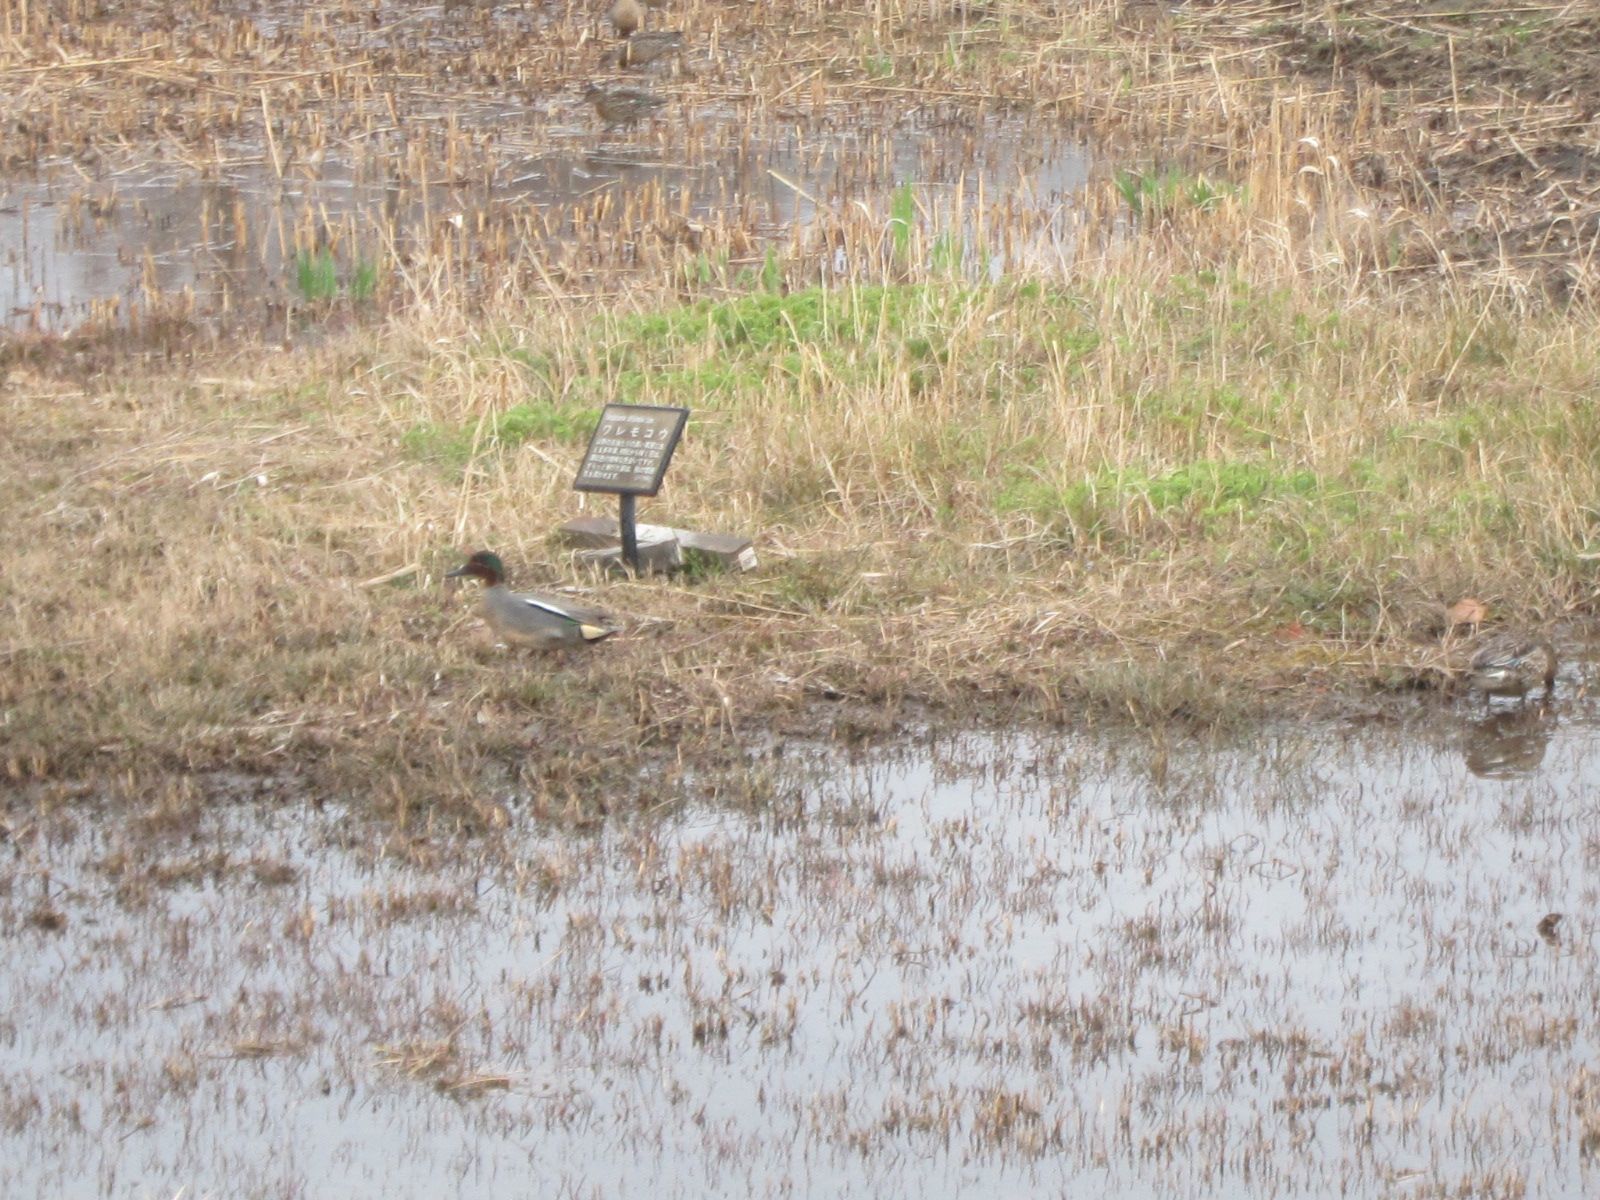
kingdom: Animalia
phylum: Chordata
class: Aves
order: Anseriformes
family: Anatidae
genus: Anas
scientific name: Anas crecca
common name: Eurasian teal
